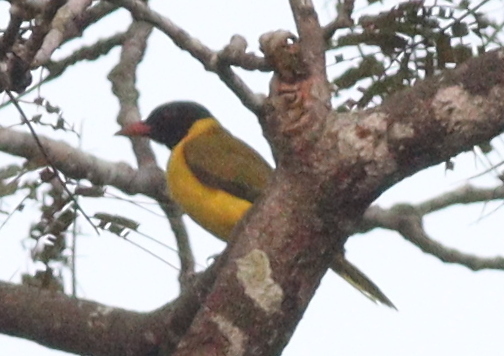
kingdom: Animalia
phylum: Chordata
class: Aves
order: Passeriformes
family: Oriolidae
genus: Oriolus
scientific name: Oriolus nigripennis
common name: Black-winged oriole
